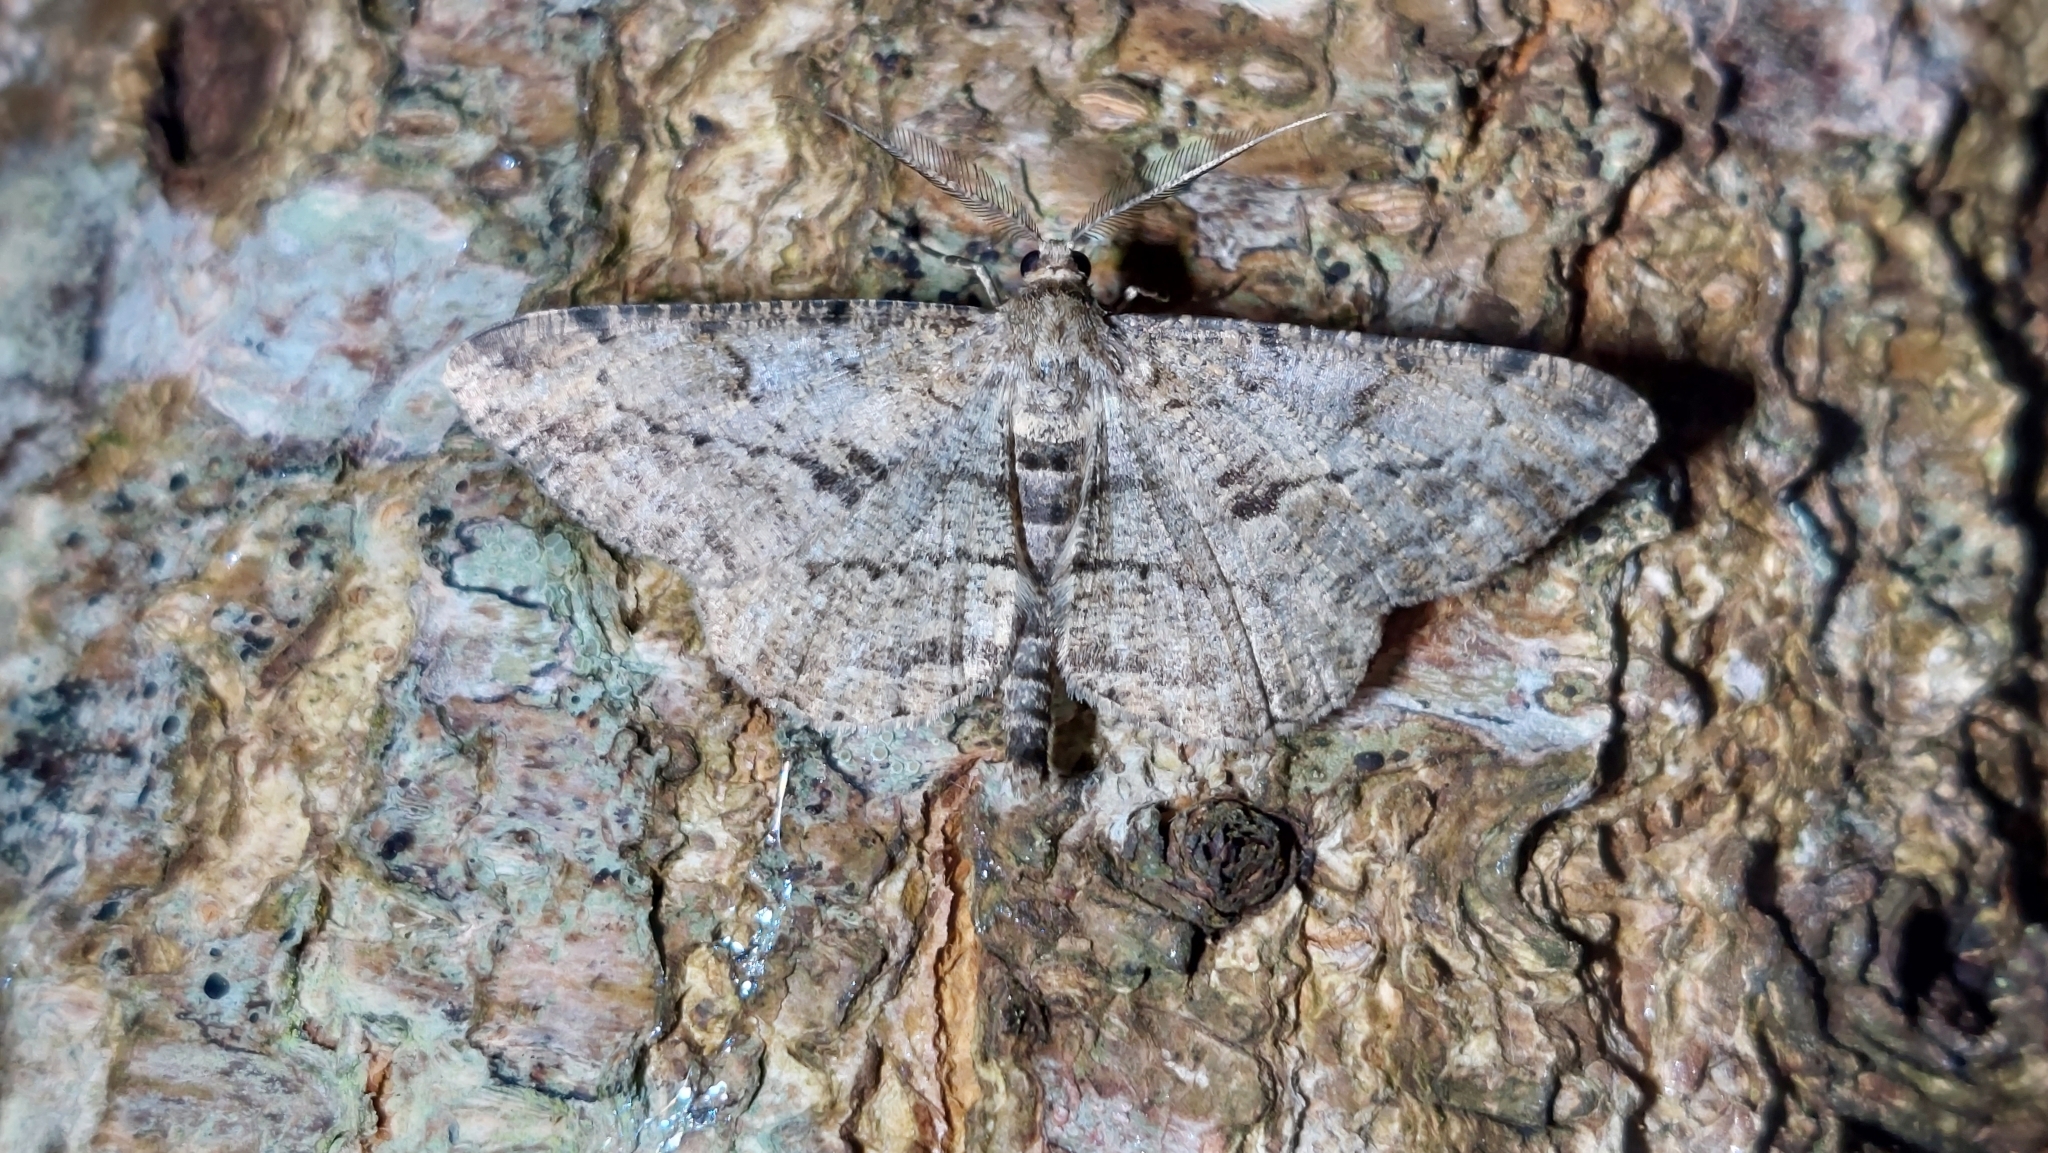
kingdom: Animalia
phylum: Arthropoda
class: Insecta
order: Lepidoptera
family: Geometridae
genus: Peribatodes
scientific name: Peribatodes rhomboidaria
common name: Willow beauty
